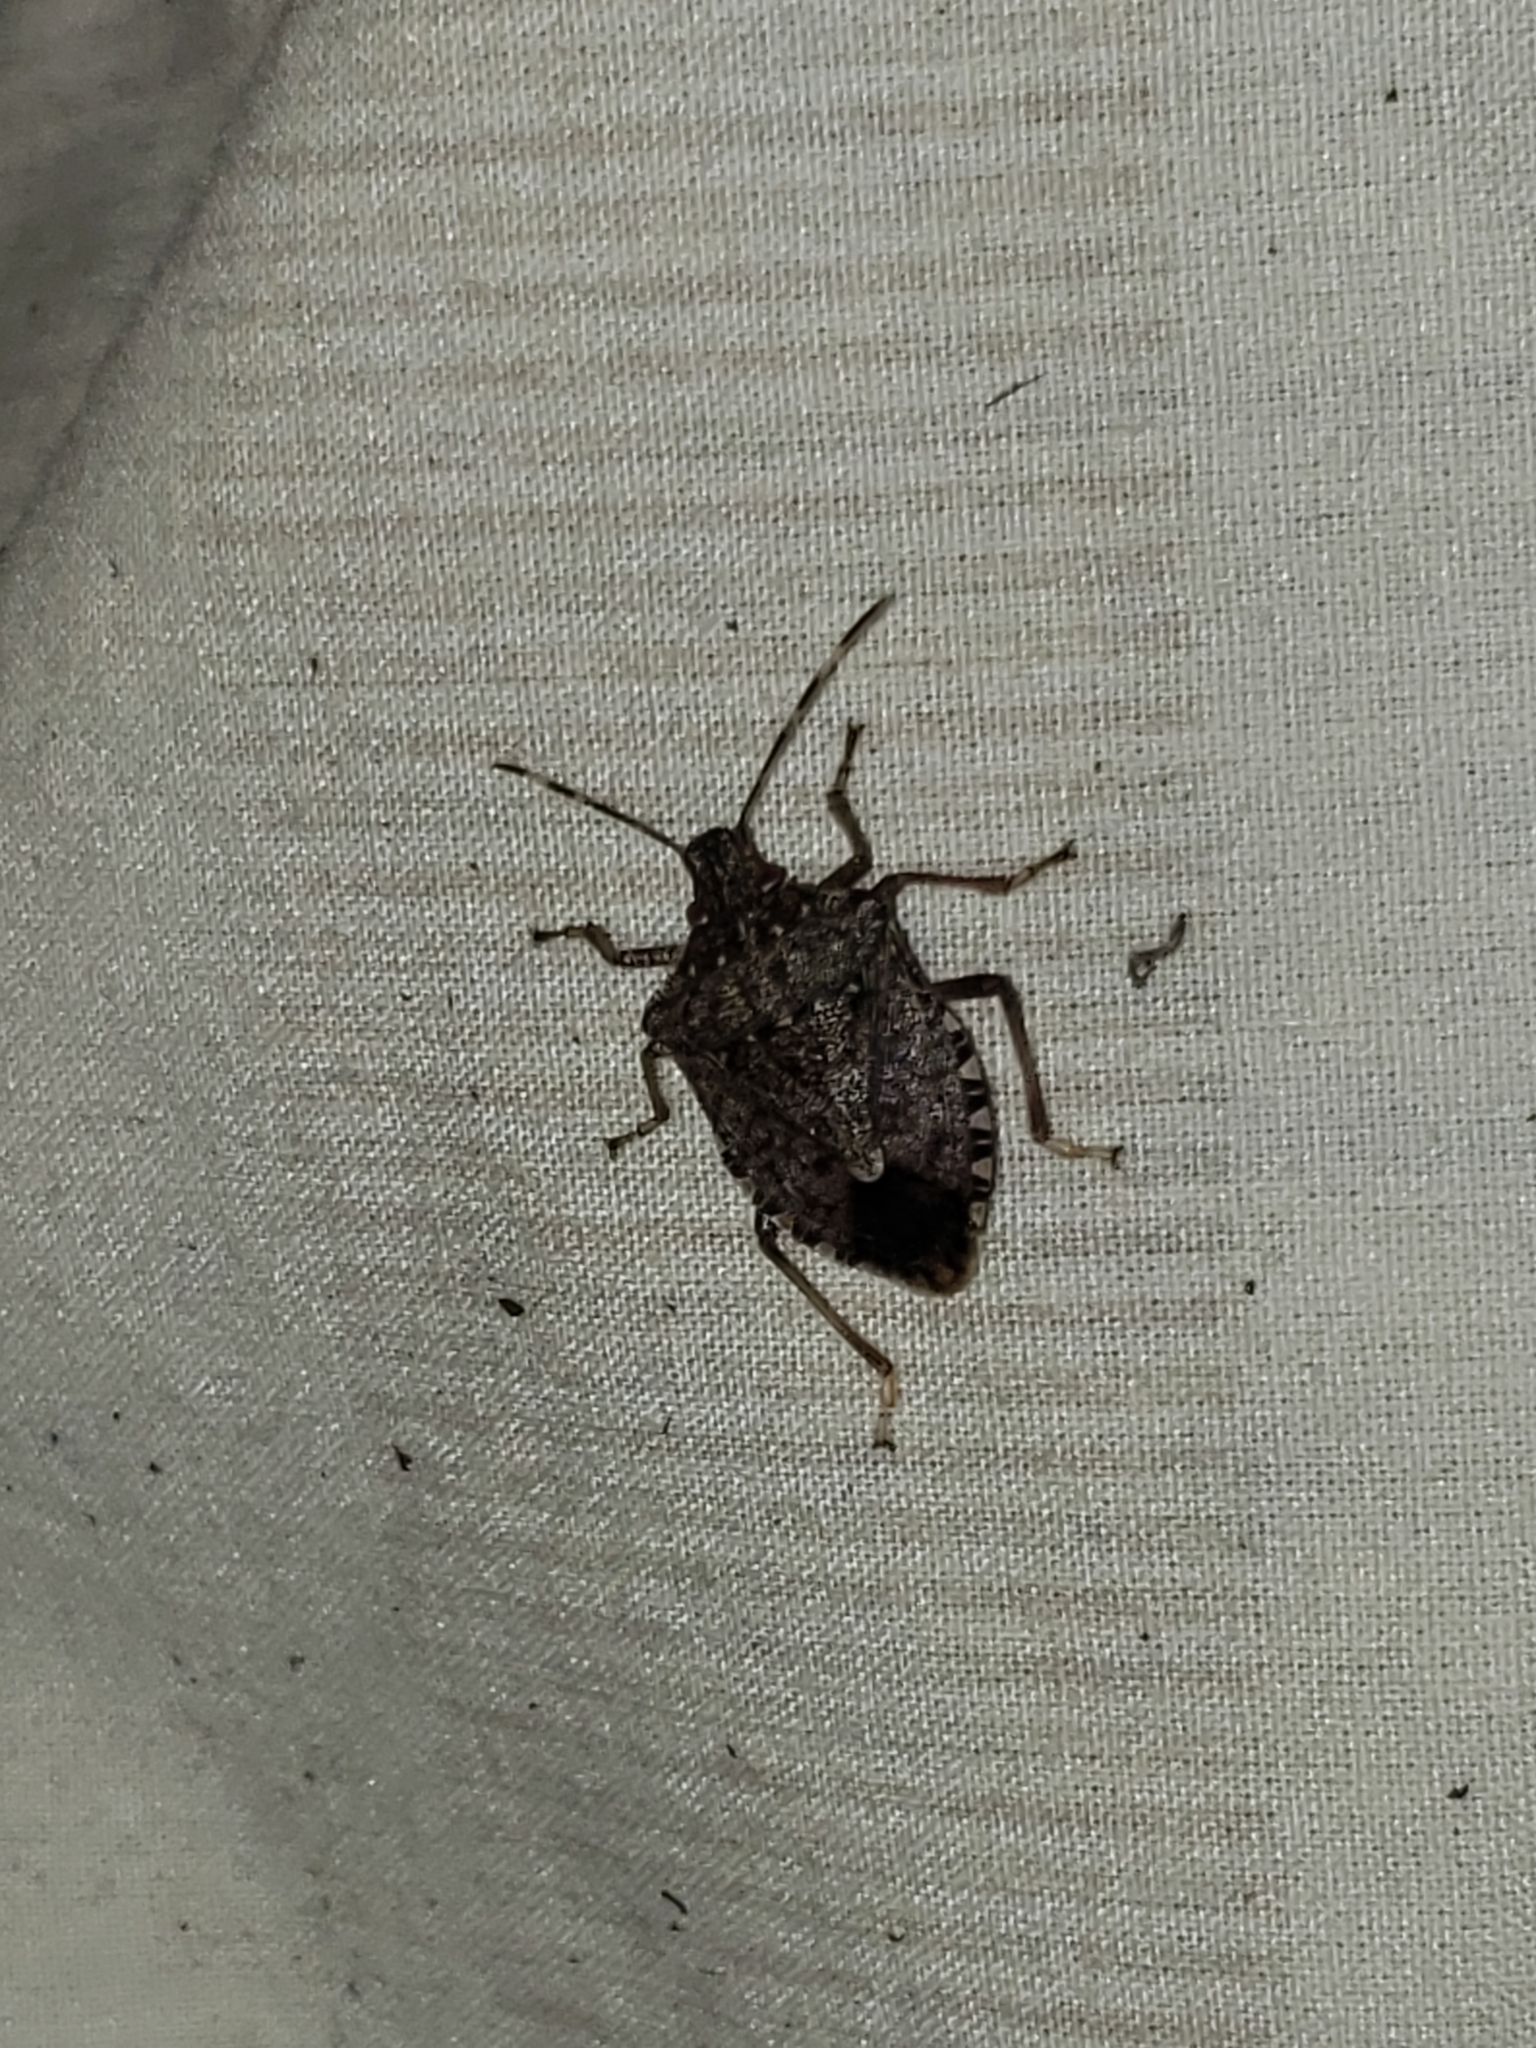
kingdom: Animalia
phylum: Arthropoda
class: Insecta
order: Hemiptera
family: Pentatomidae
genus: Halyomorpha
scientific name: Halyomorpha halys
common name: Brown marmorated stink bug
